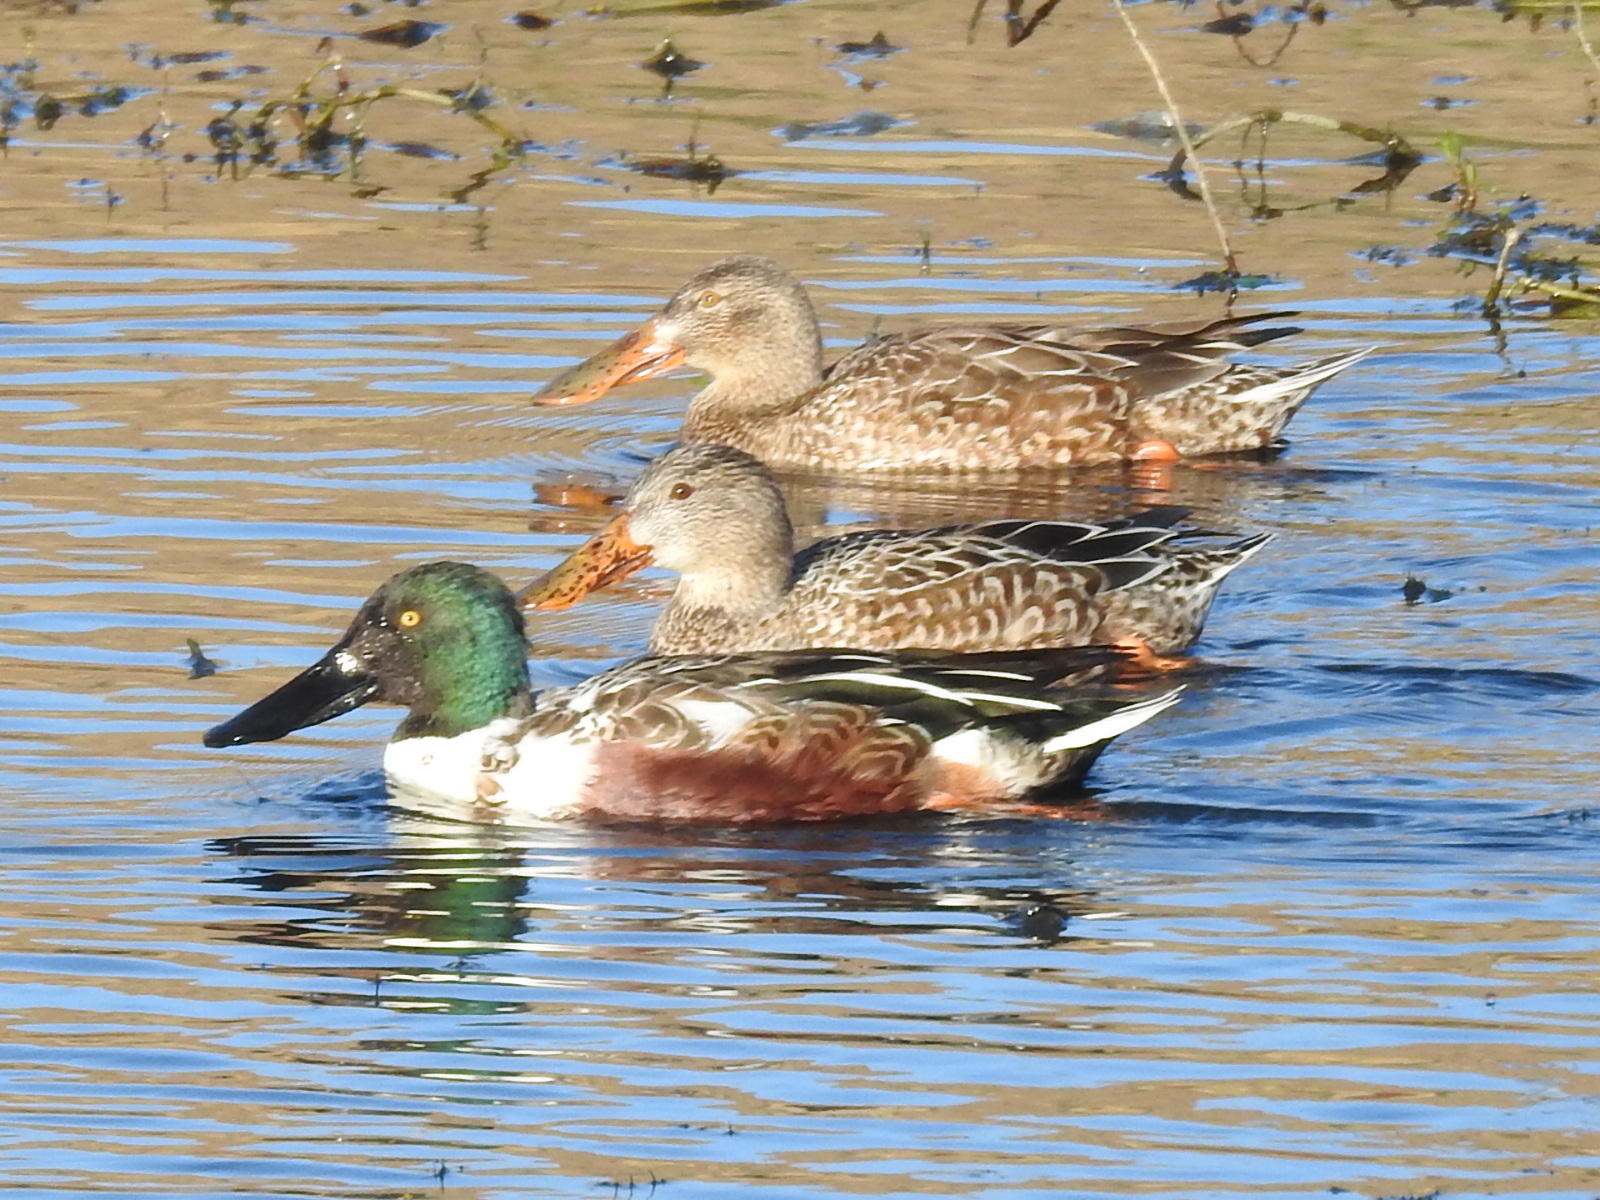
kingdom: Animalia
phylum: Chordata
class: Aves
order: Anseriformes
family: Anatidae
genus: Spatula
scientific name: Spatula clypeata
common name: Northern shoveler
